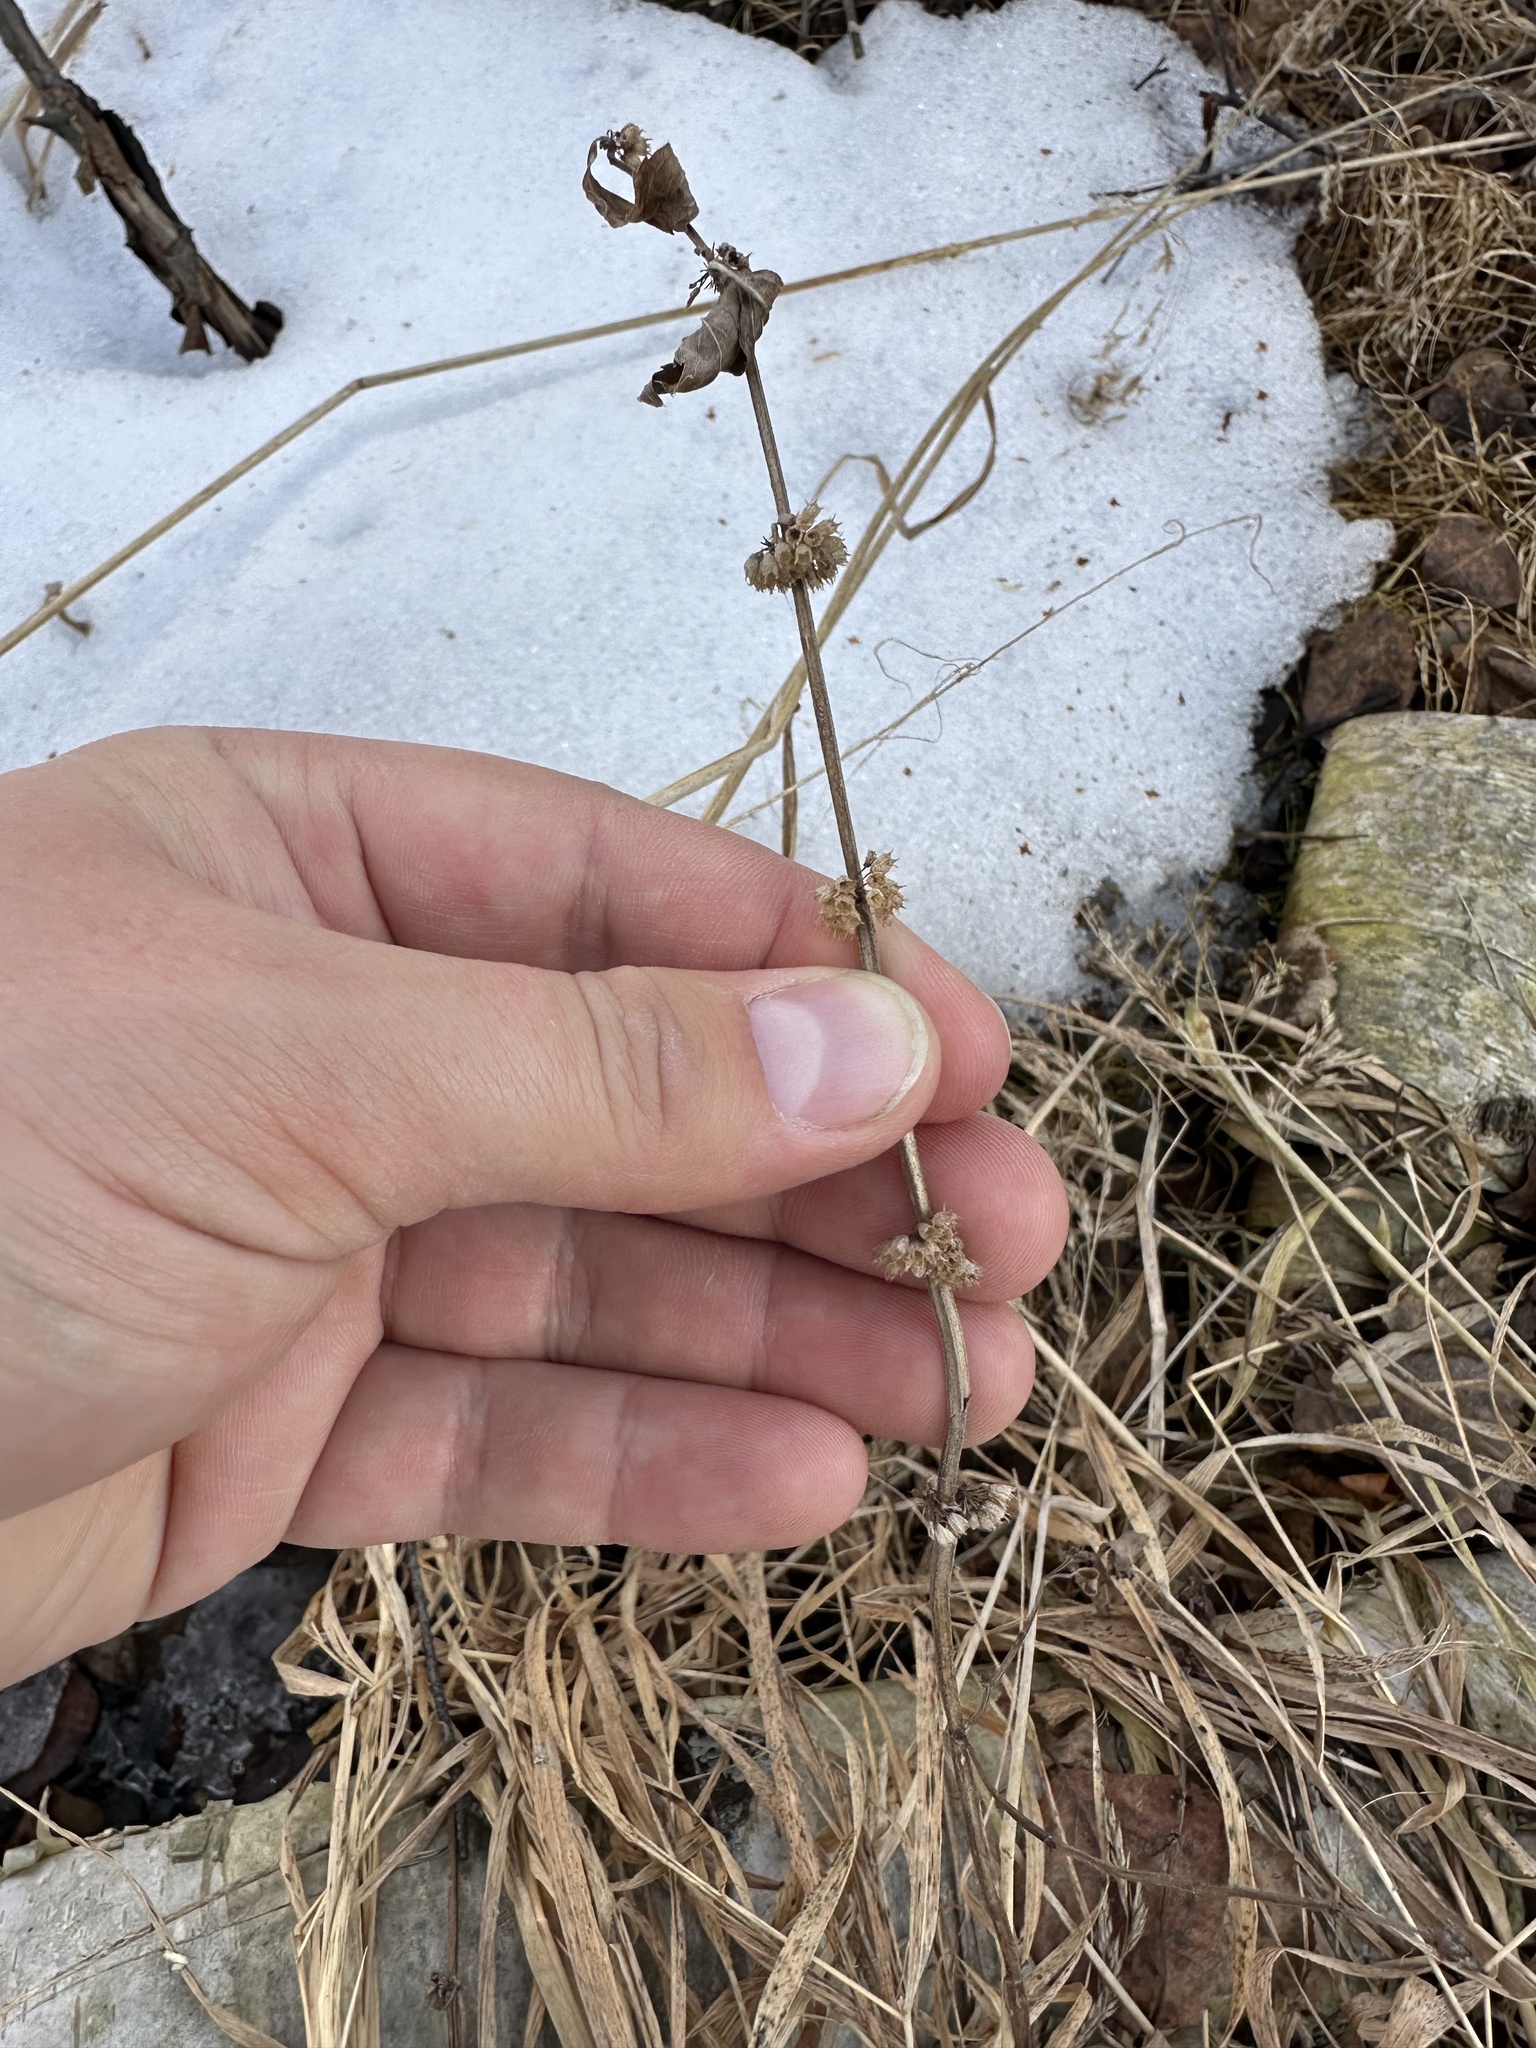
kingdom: Plantae
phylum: Tracheophyta
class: Magnoliopsida
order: Lamiales
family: Lamiaceae
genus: Mentha
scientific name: Mentha canadensis
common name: American corn mint
